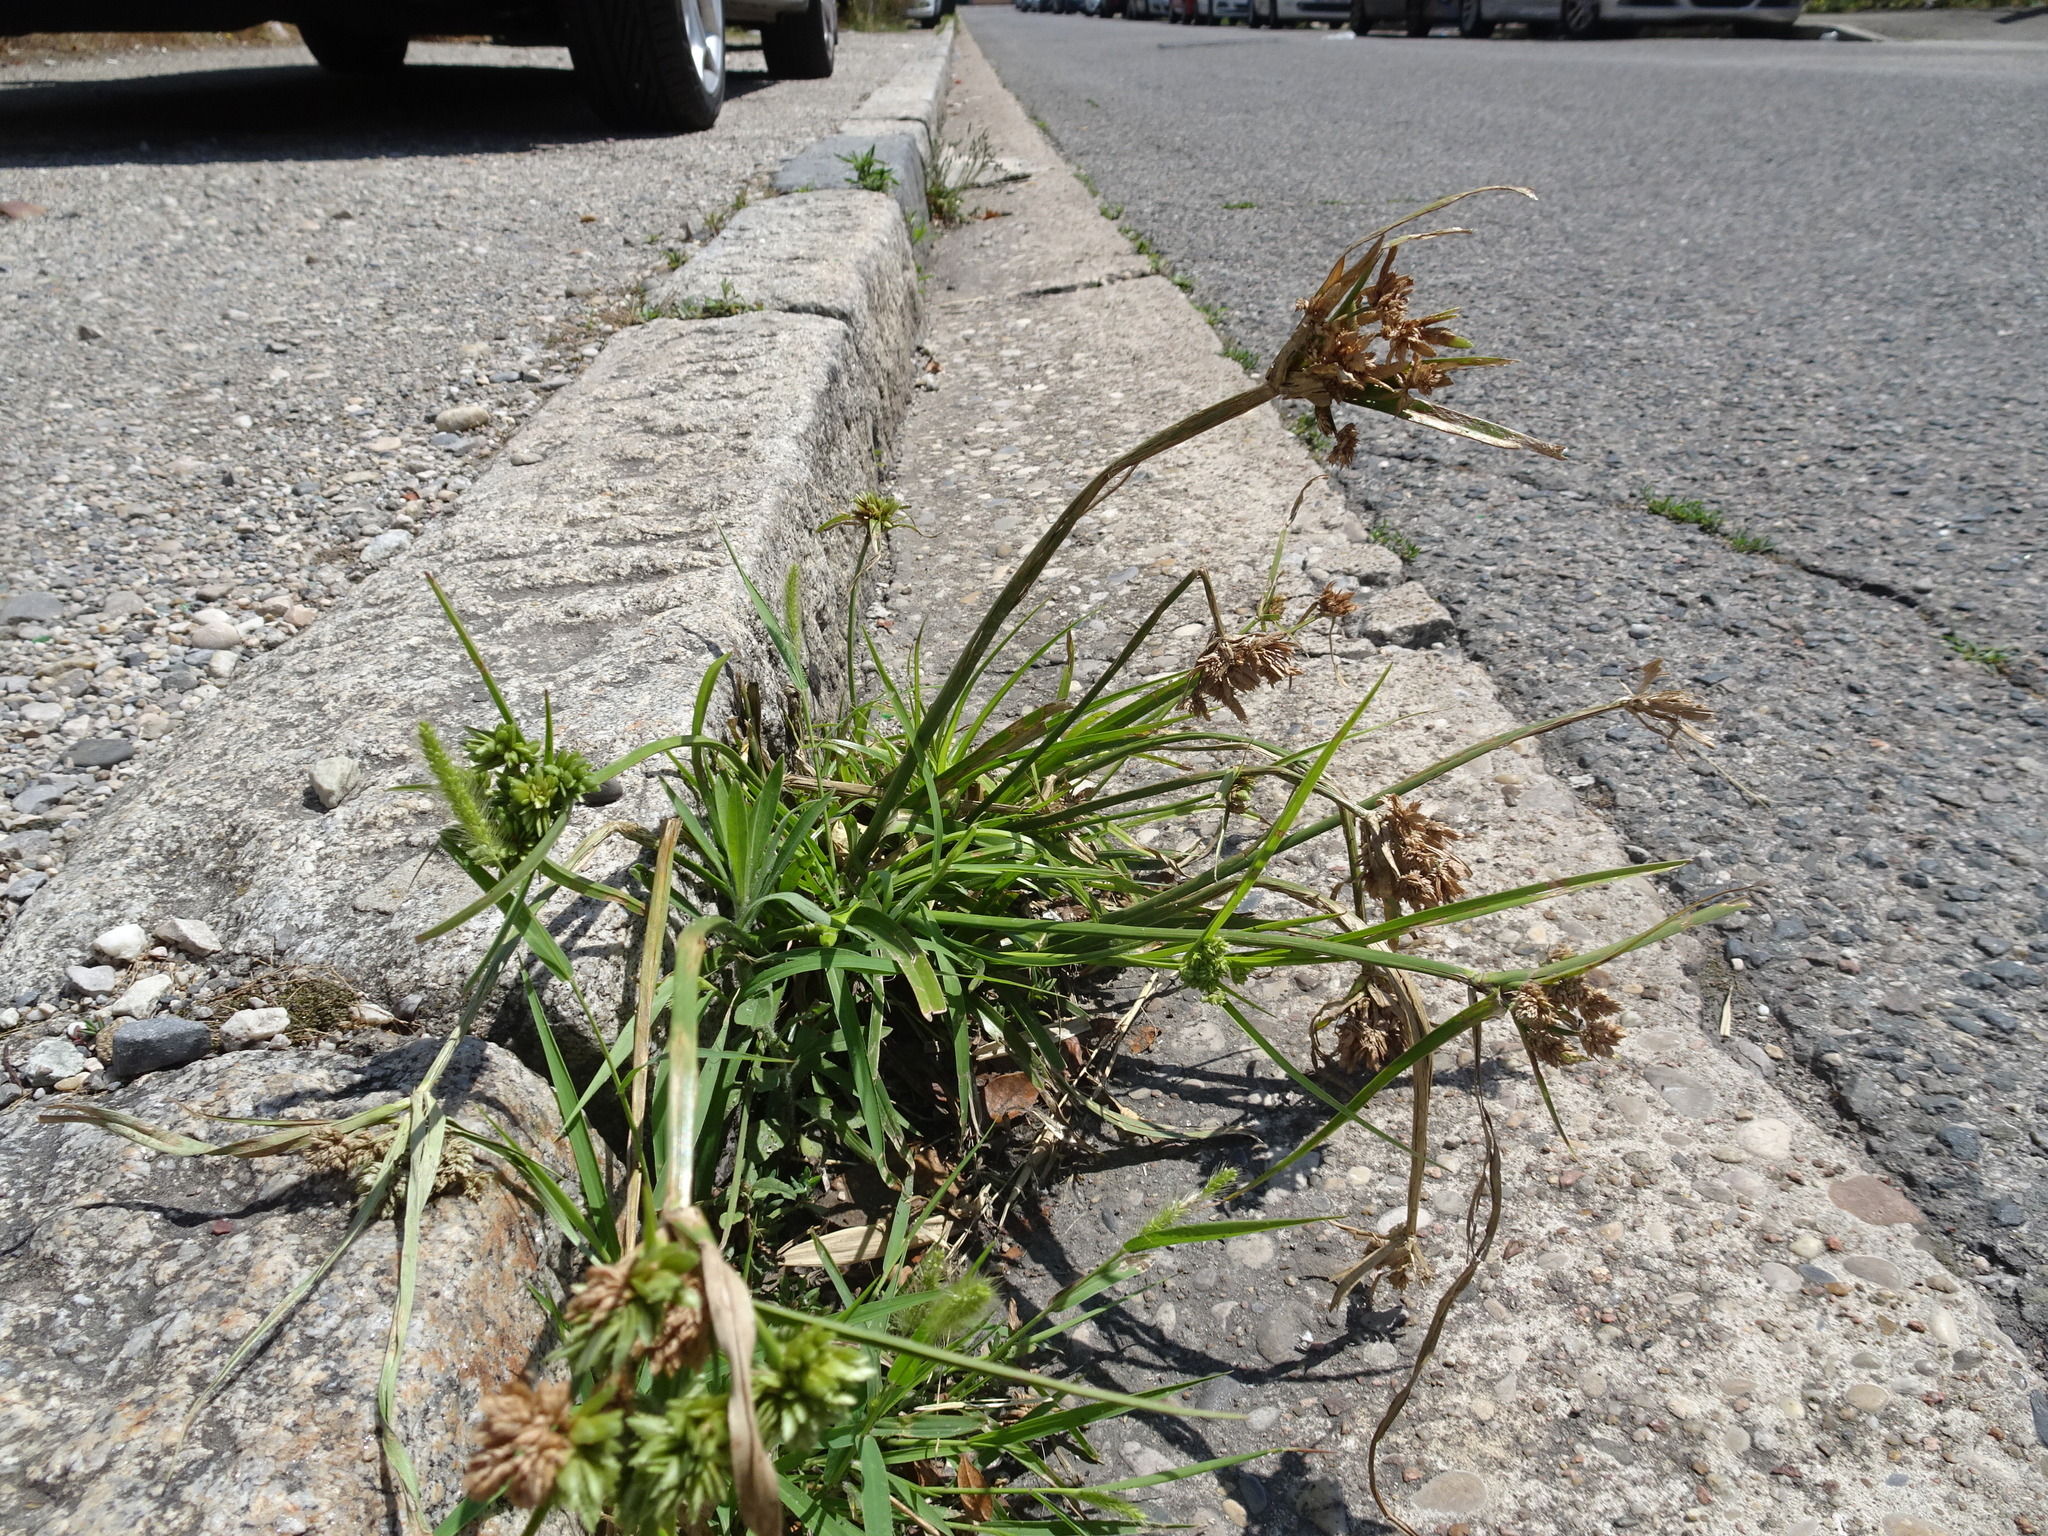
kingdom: Plantae
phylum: Tracheophyta
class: Liliopsida
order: Poales
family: Cyperaceae
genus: Cyperus
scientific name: Cyperus eragrostis
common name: Tall flatsedge
